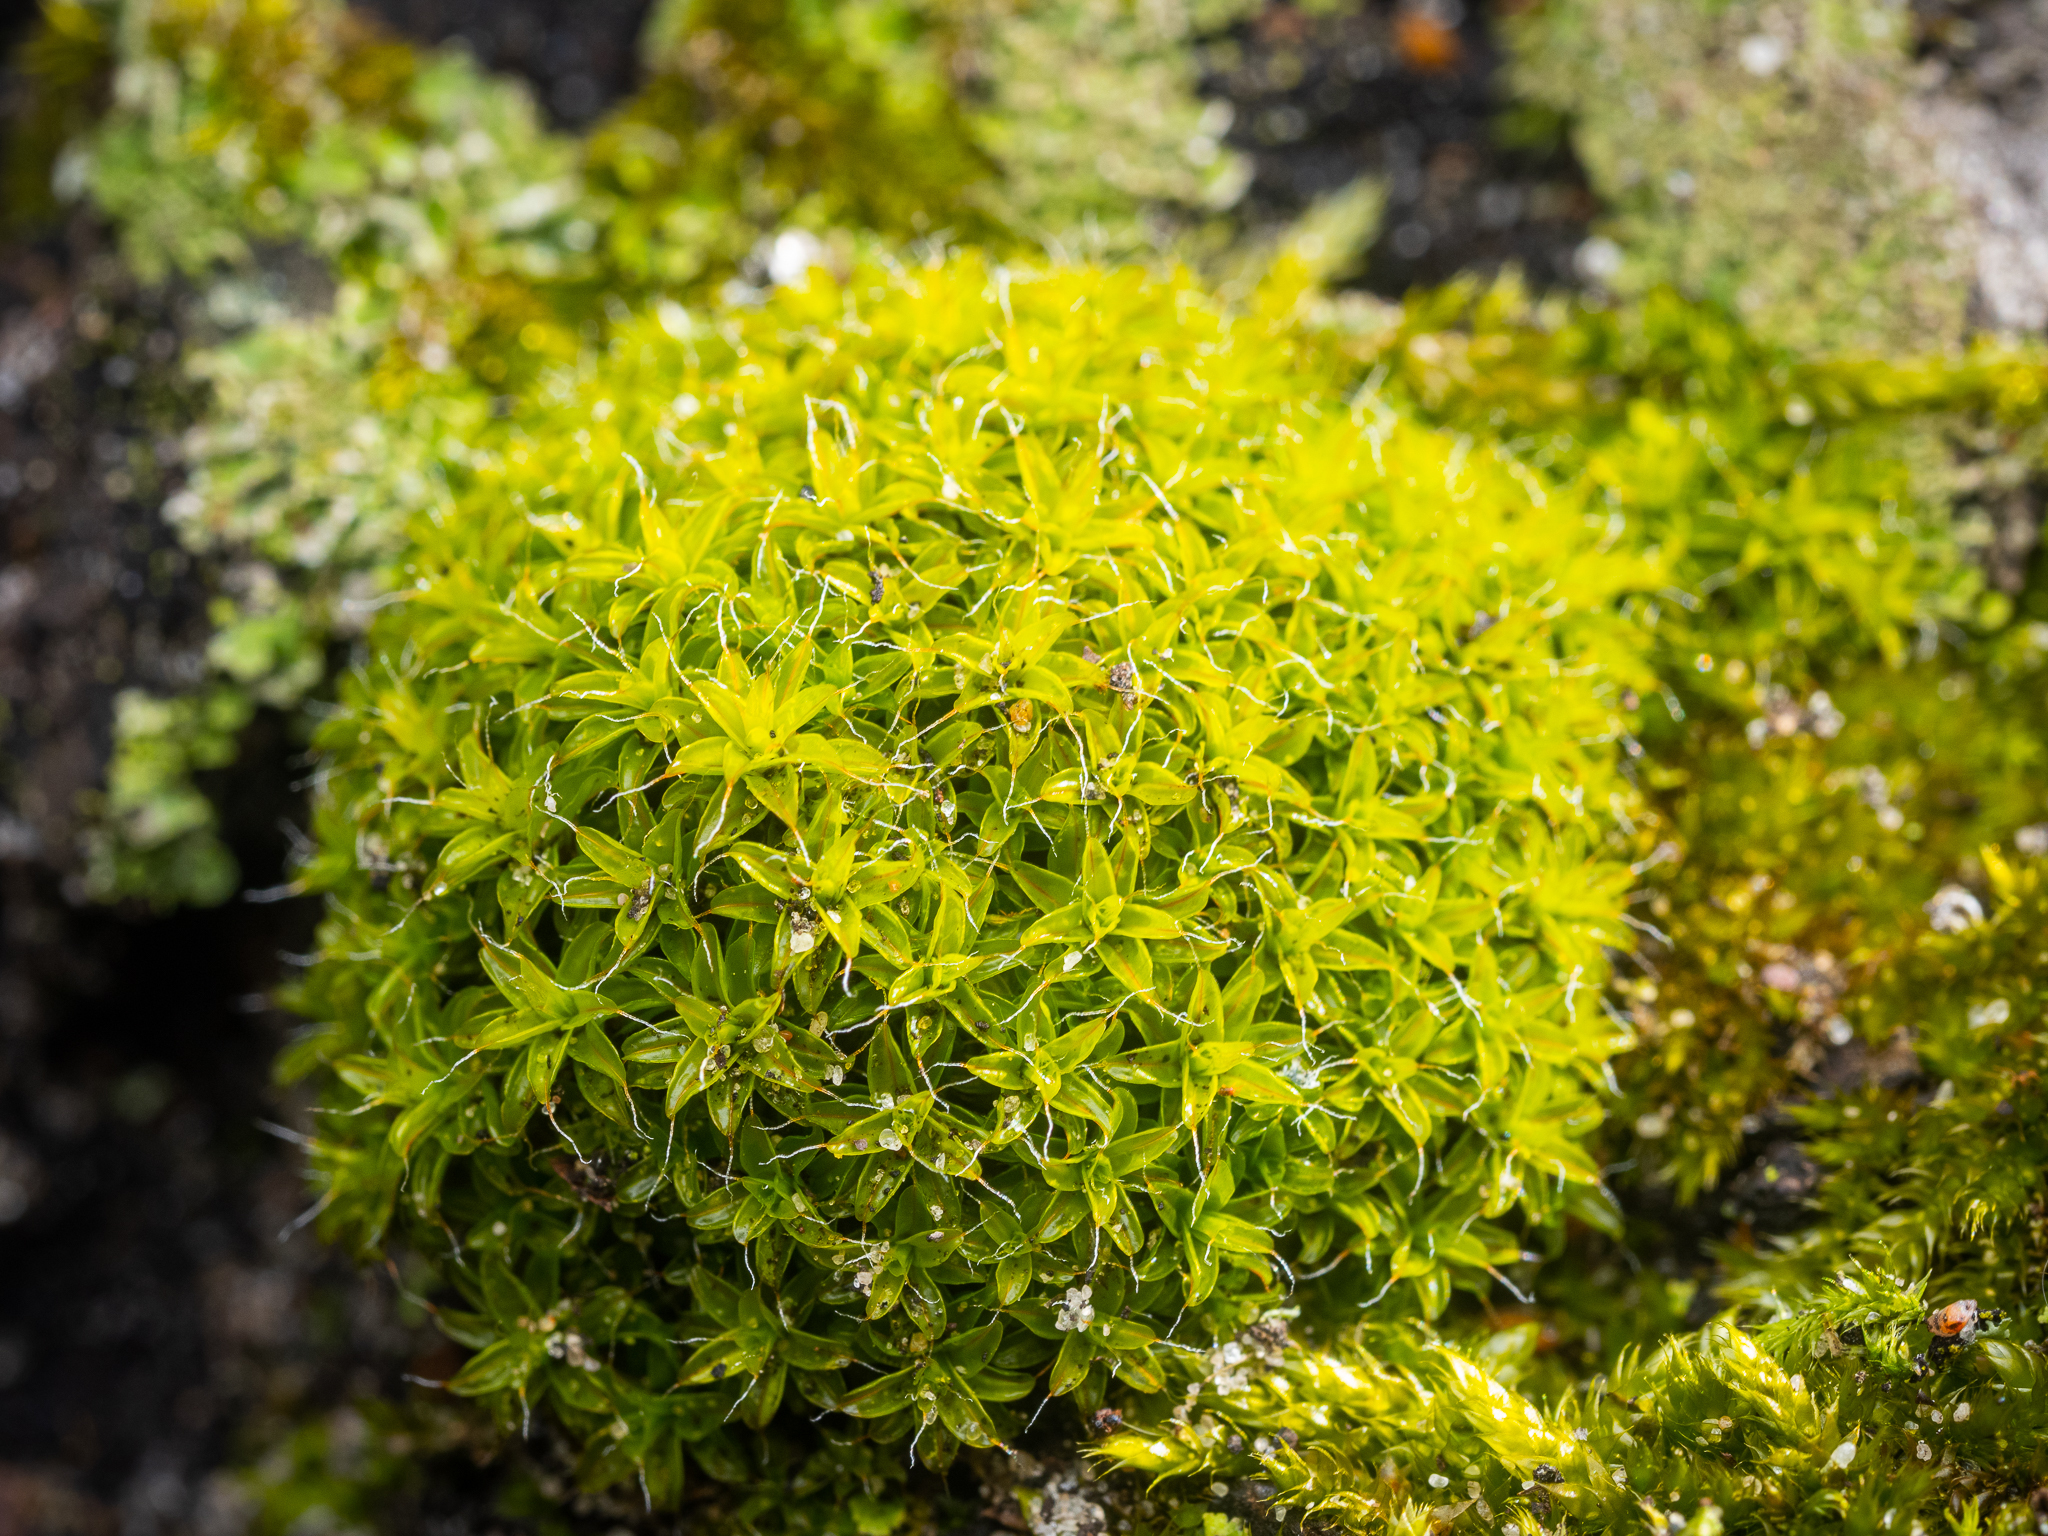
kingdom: Plantae
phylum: Bryophyta
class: Bryopsida
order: Pottiales
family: Pottiaceae
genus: Syntrichia
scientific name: Syntrichia ruralis
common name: Sidewalk screw moss
